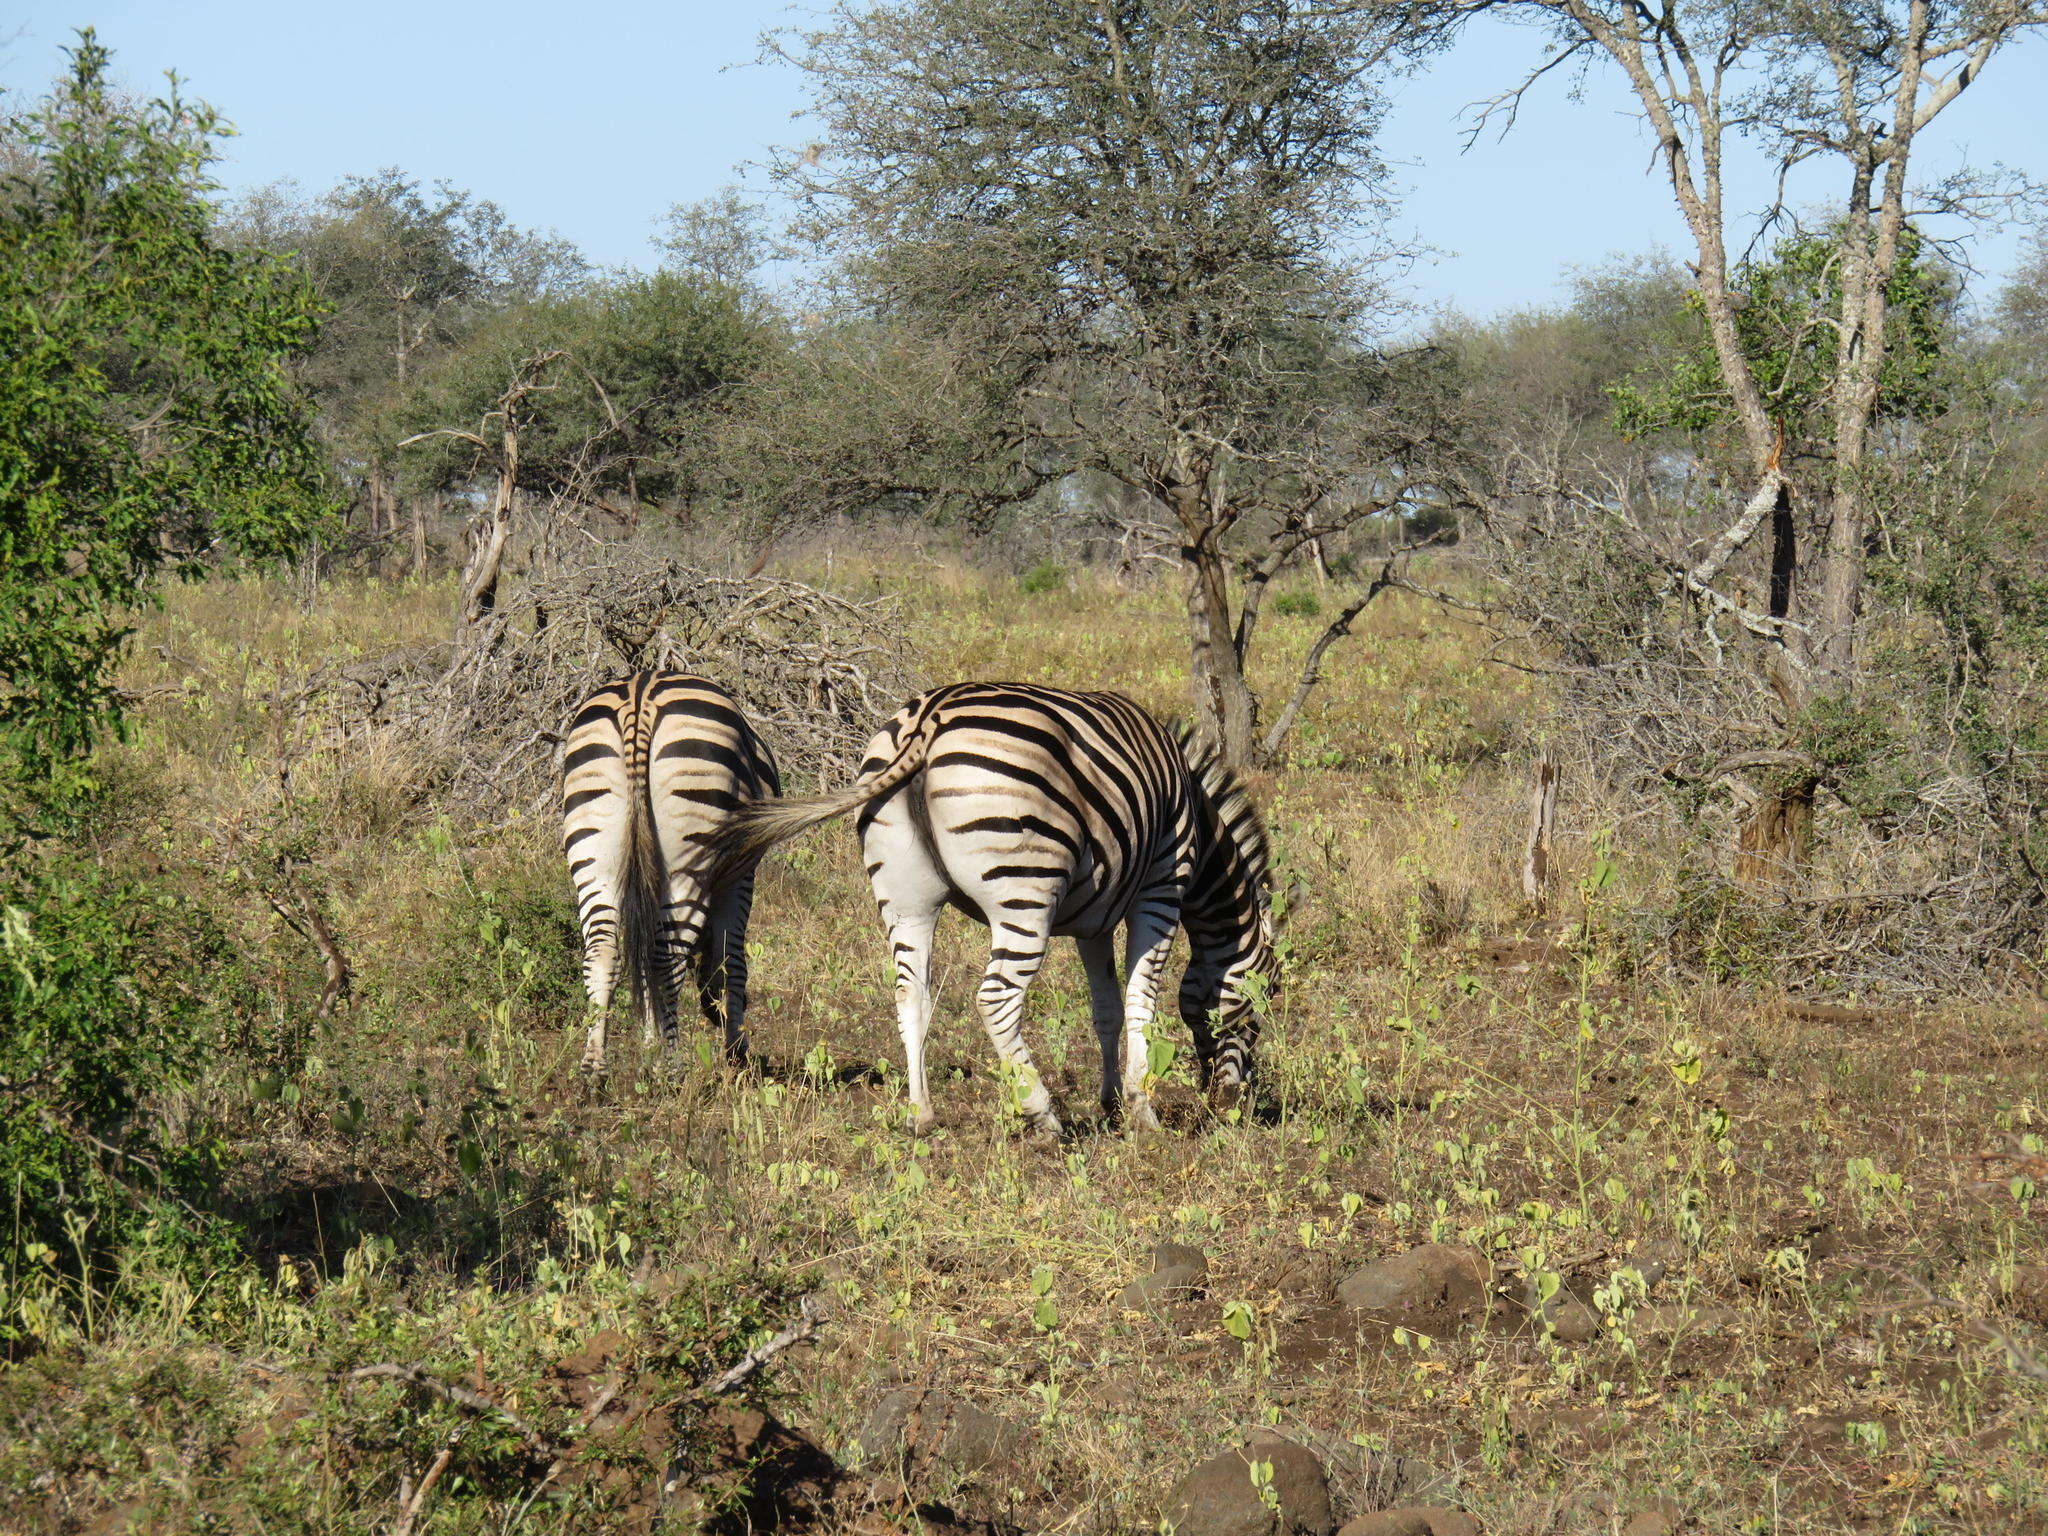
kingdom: Animalia
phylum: Chordata
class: Mammalia
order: Perissodactyla
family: Equidae
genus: Equus
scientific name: Equus quagga
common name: Plains zebra
